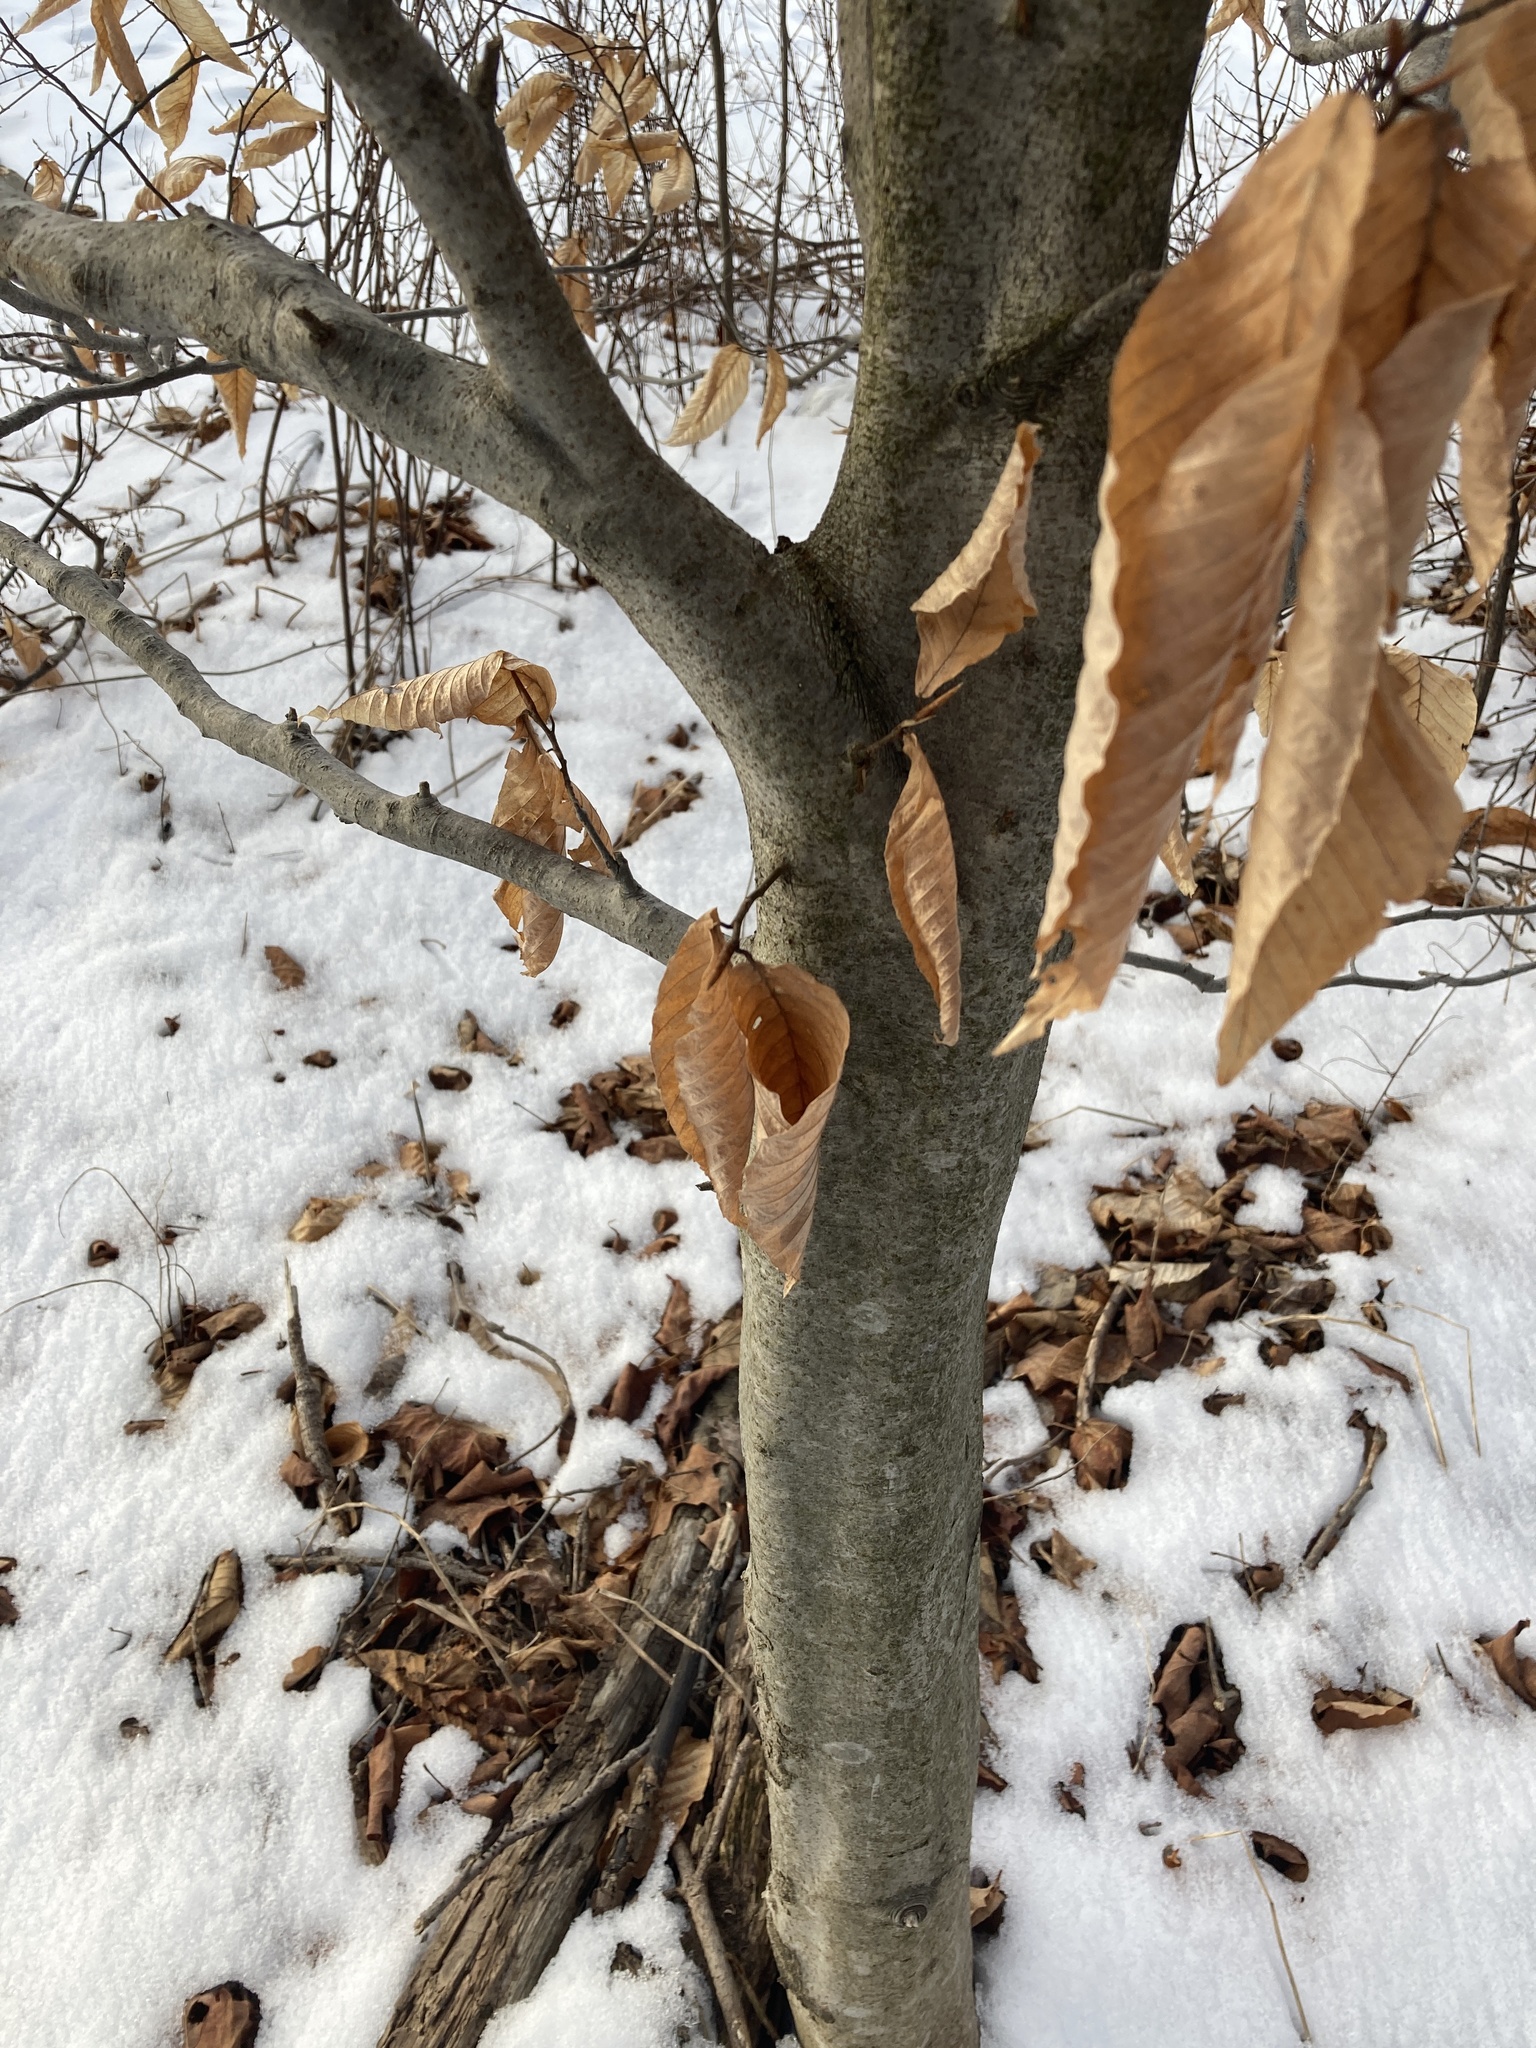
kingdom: Plantae
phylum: Tracheophyta
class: Magnoliopsida
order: Fagales
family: Fagaceae
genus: Fagus
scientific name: Fagus grandifolia
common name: American beech
